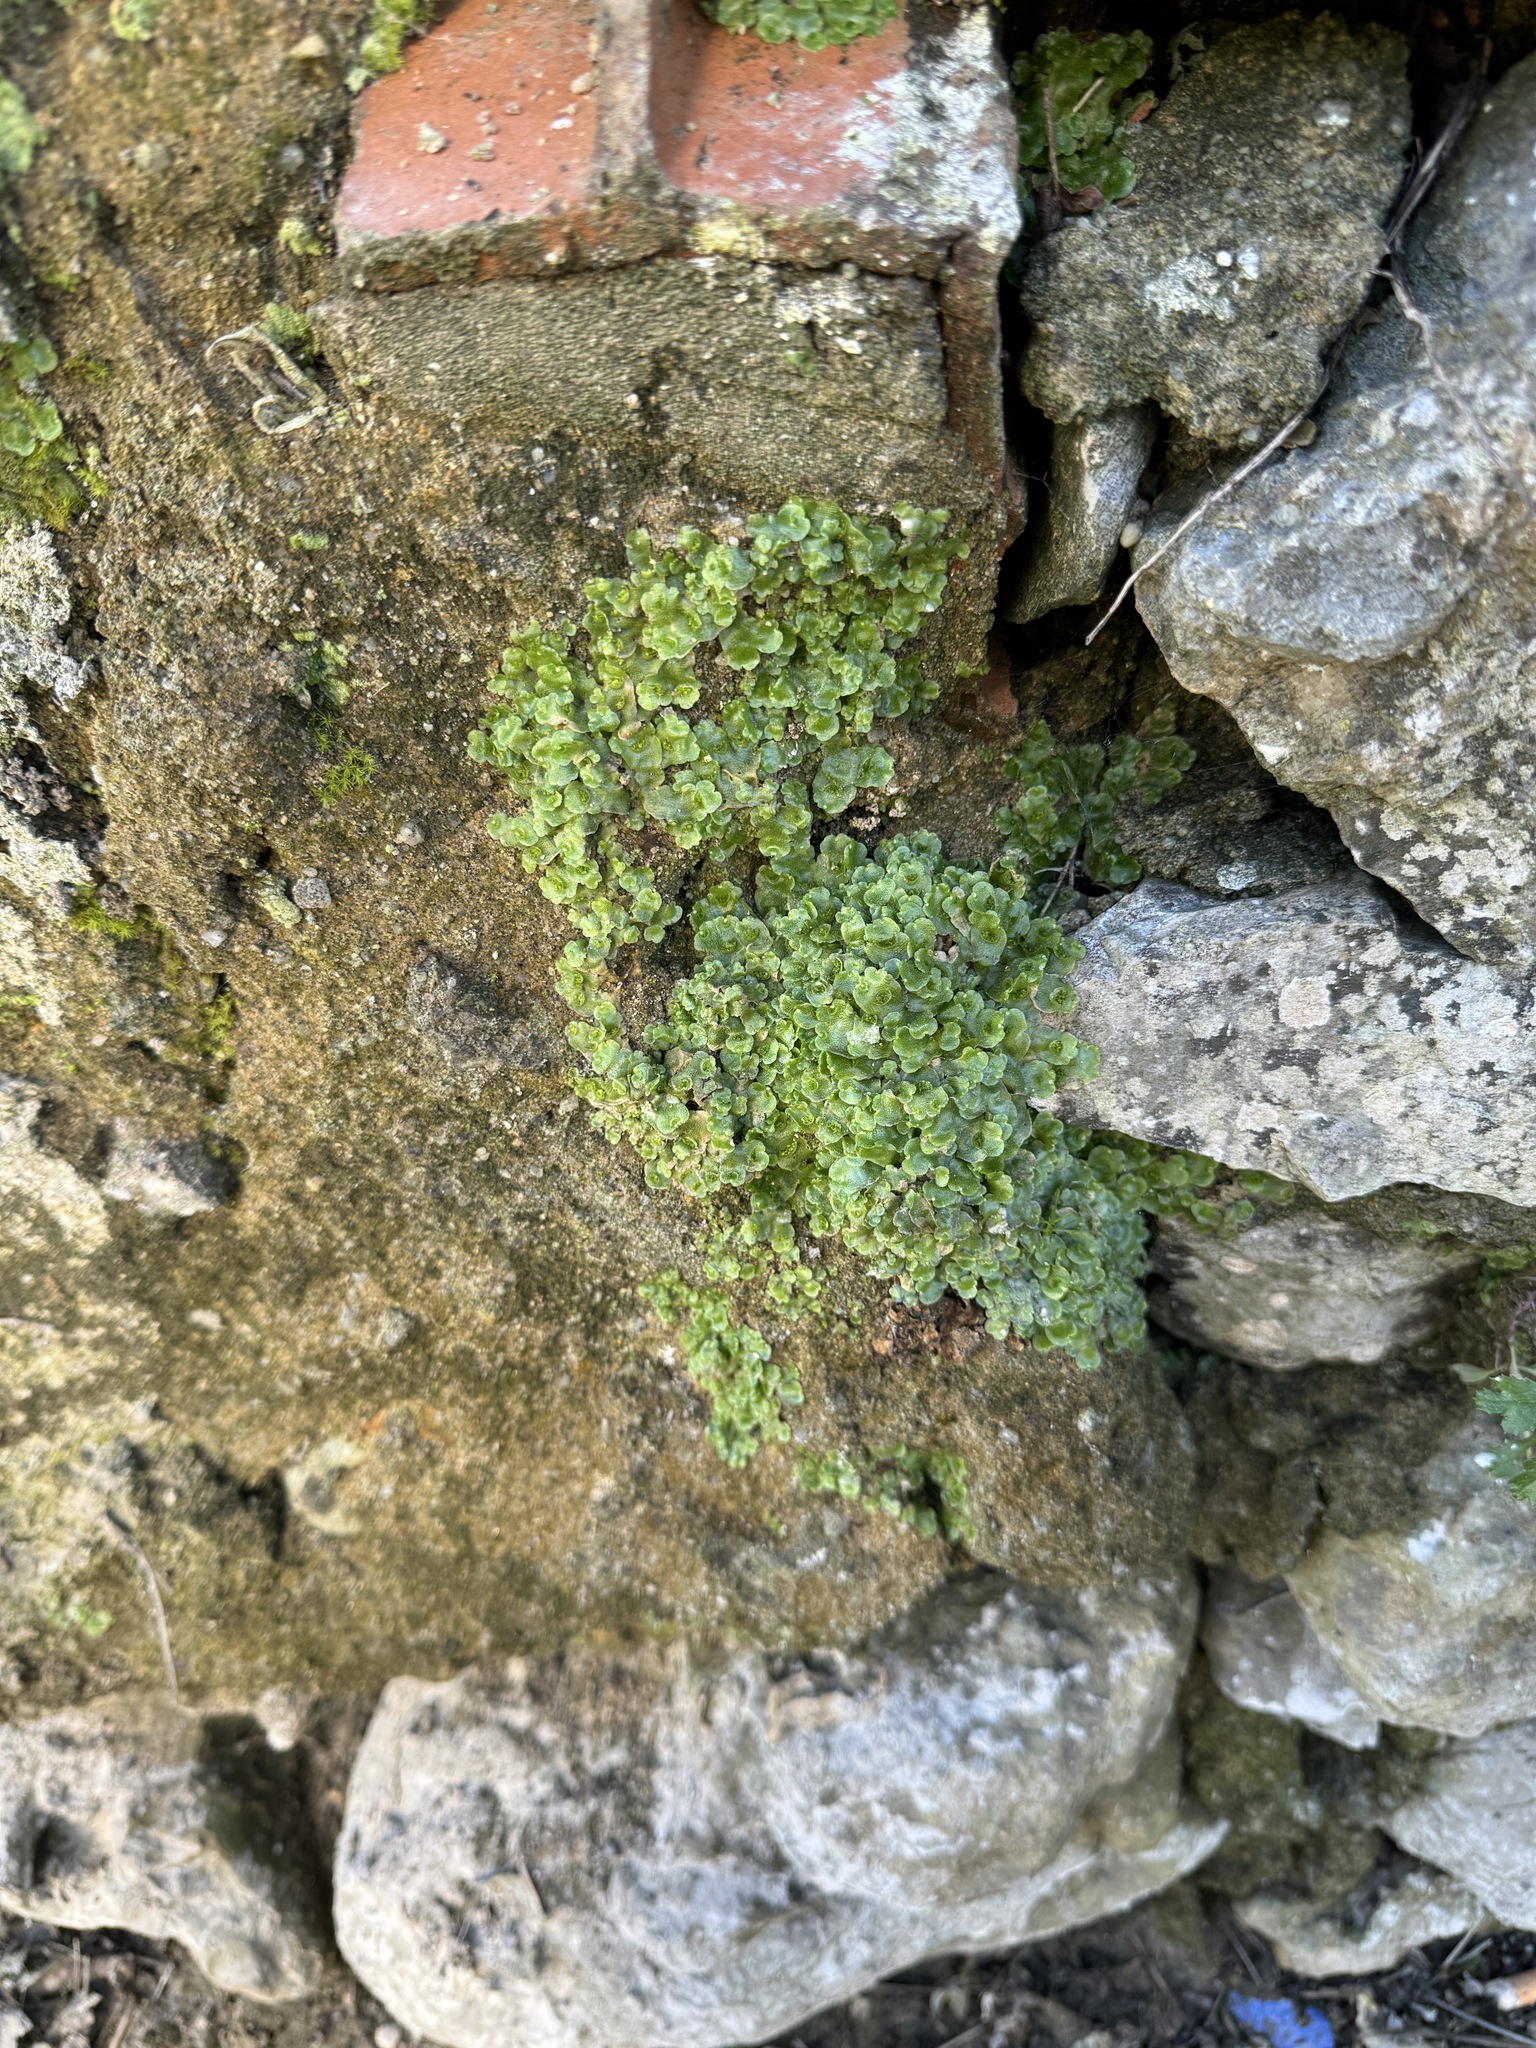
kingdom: Plantae
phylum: Marchantiophyta
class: Marchantiopsida
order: Lunulariales
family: Lunulariaceae
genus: Lunularia
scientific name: Lunularia cruciata
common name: Crescent-cup liverwort
